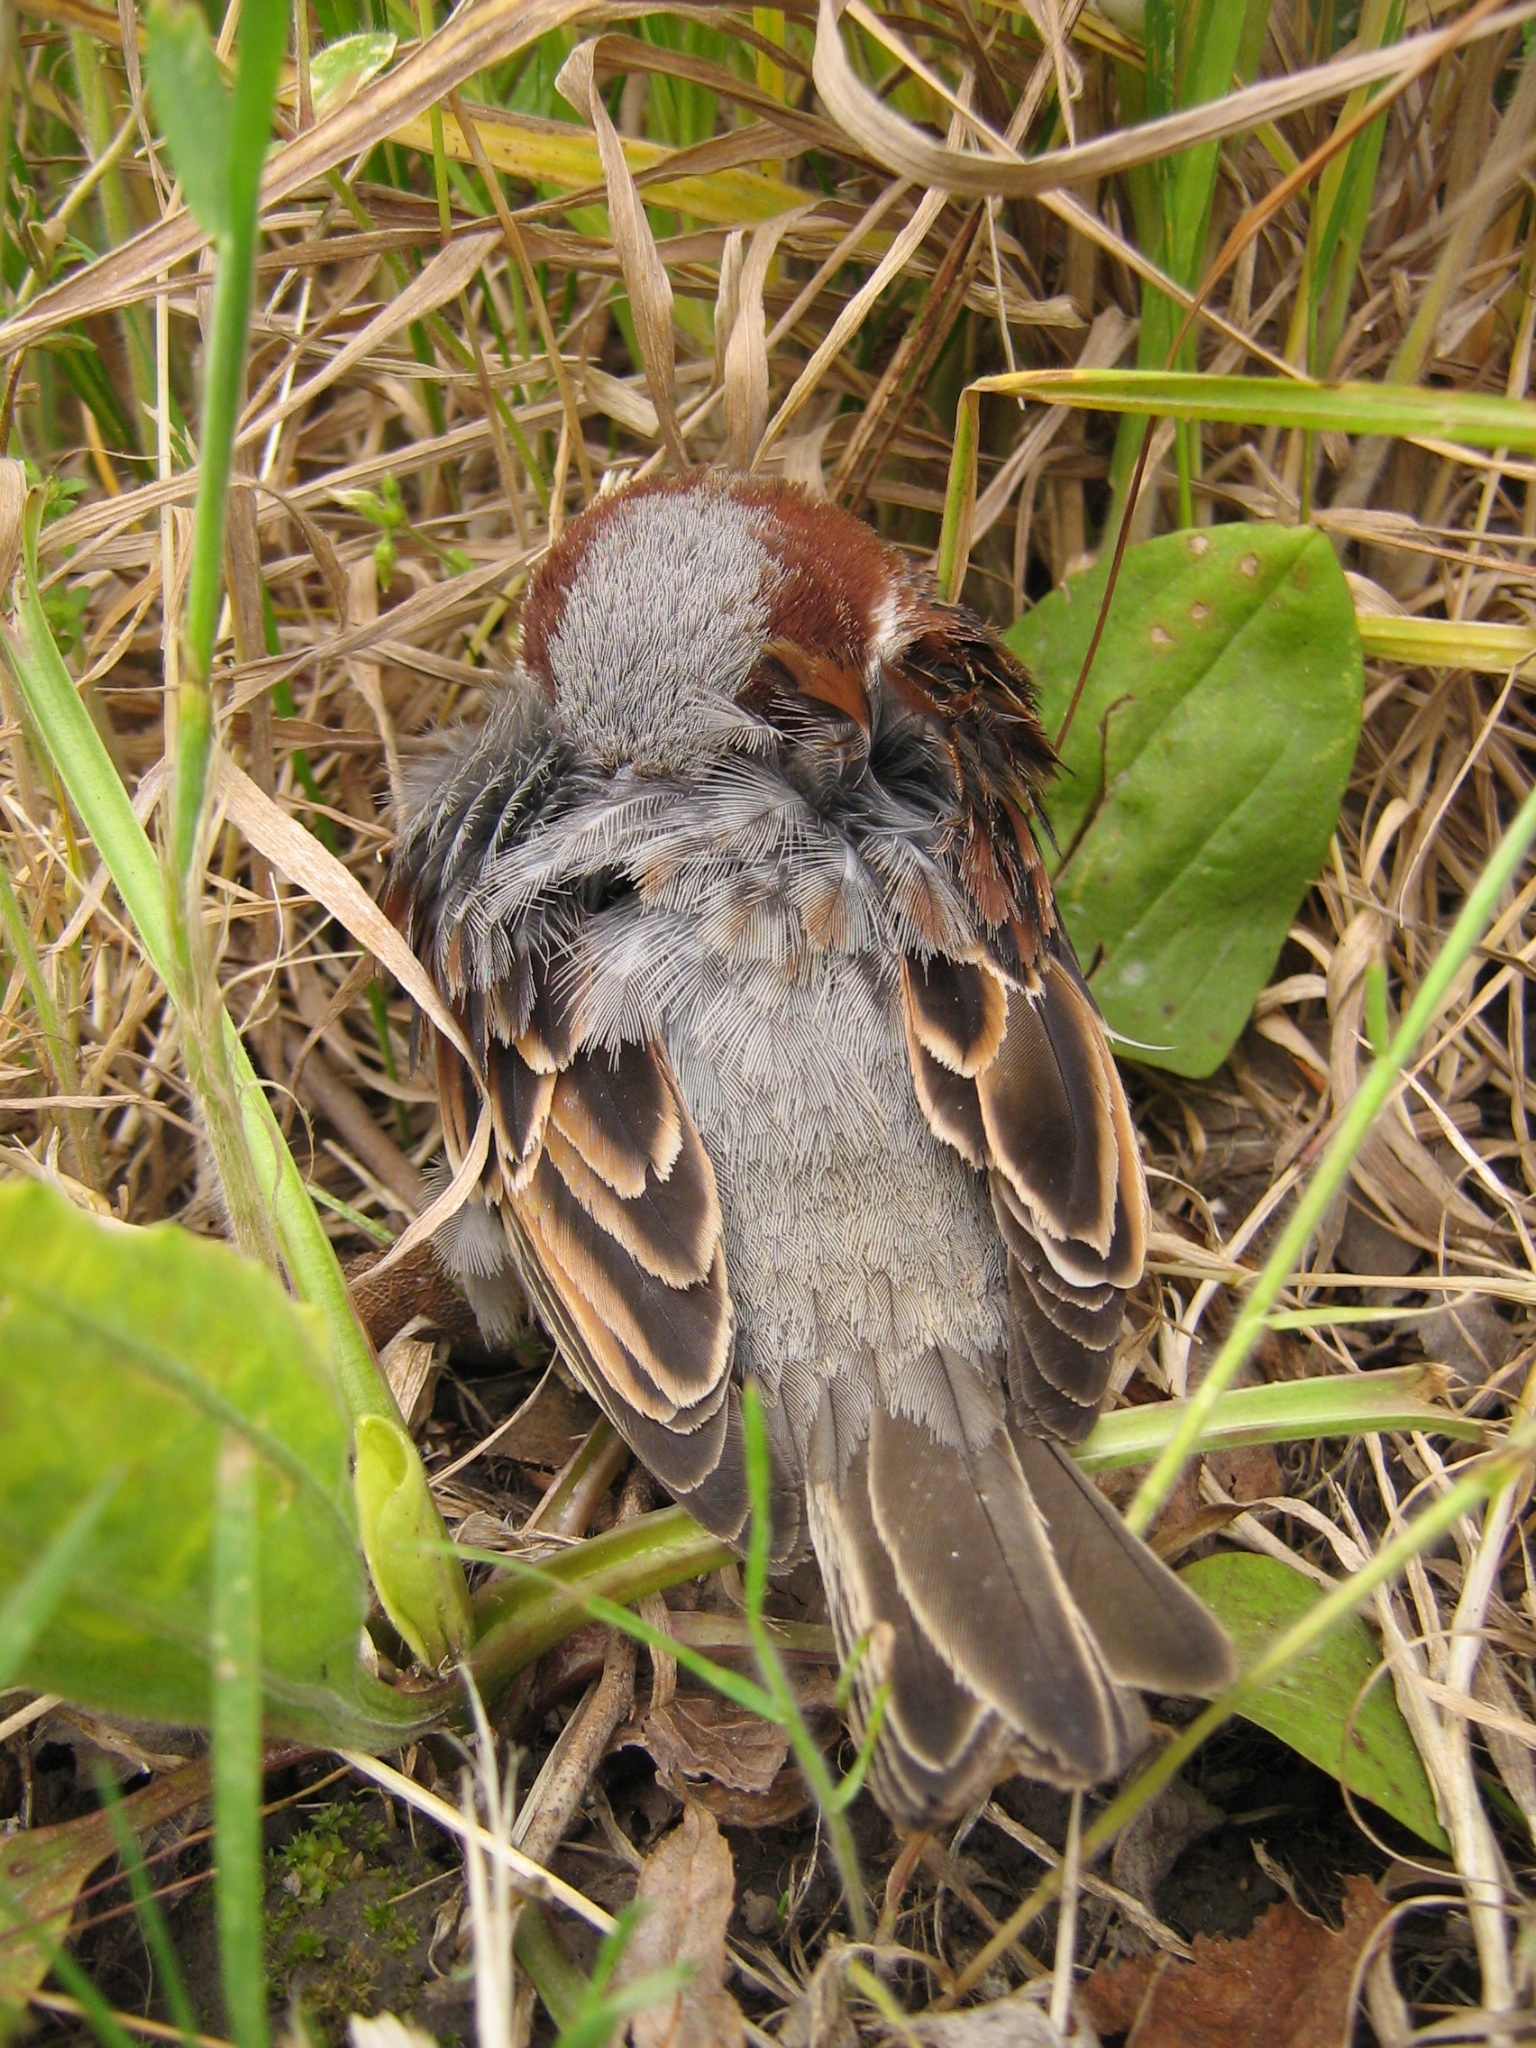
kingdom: Animalia
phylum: Chordata
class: Aves
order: Passeriformes
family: Passeridae
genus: Passer
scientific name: Passer domesticus
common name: House sparrow
